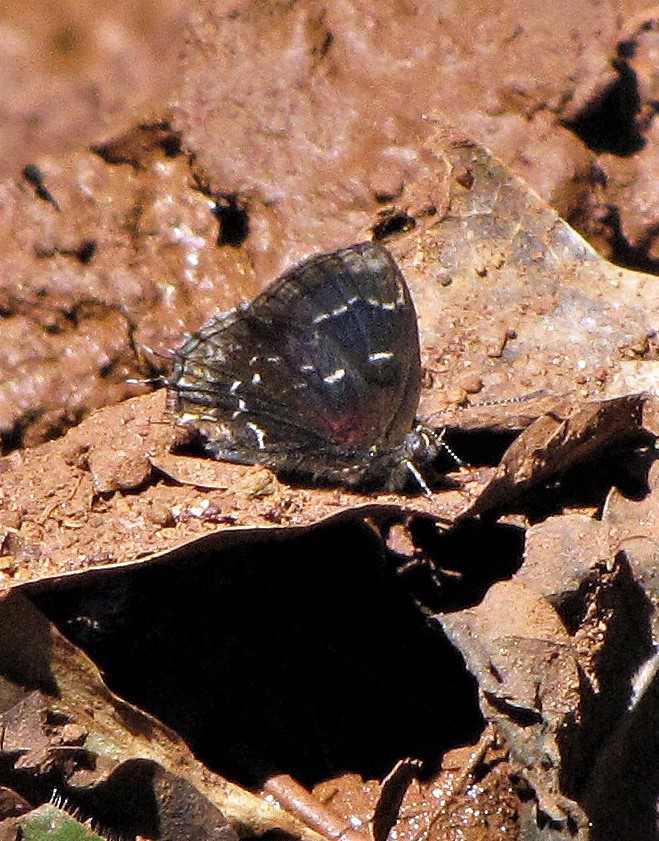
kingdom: Animalia
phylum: Arthropoda
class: Insecta
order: Lepidoptera
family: Lycaenidae
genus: Ocaria
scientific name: Ocaria ocrisia
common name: Black hairstreak
